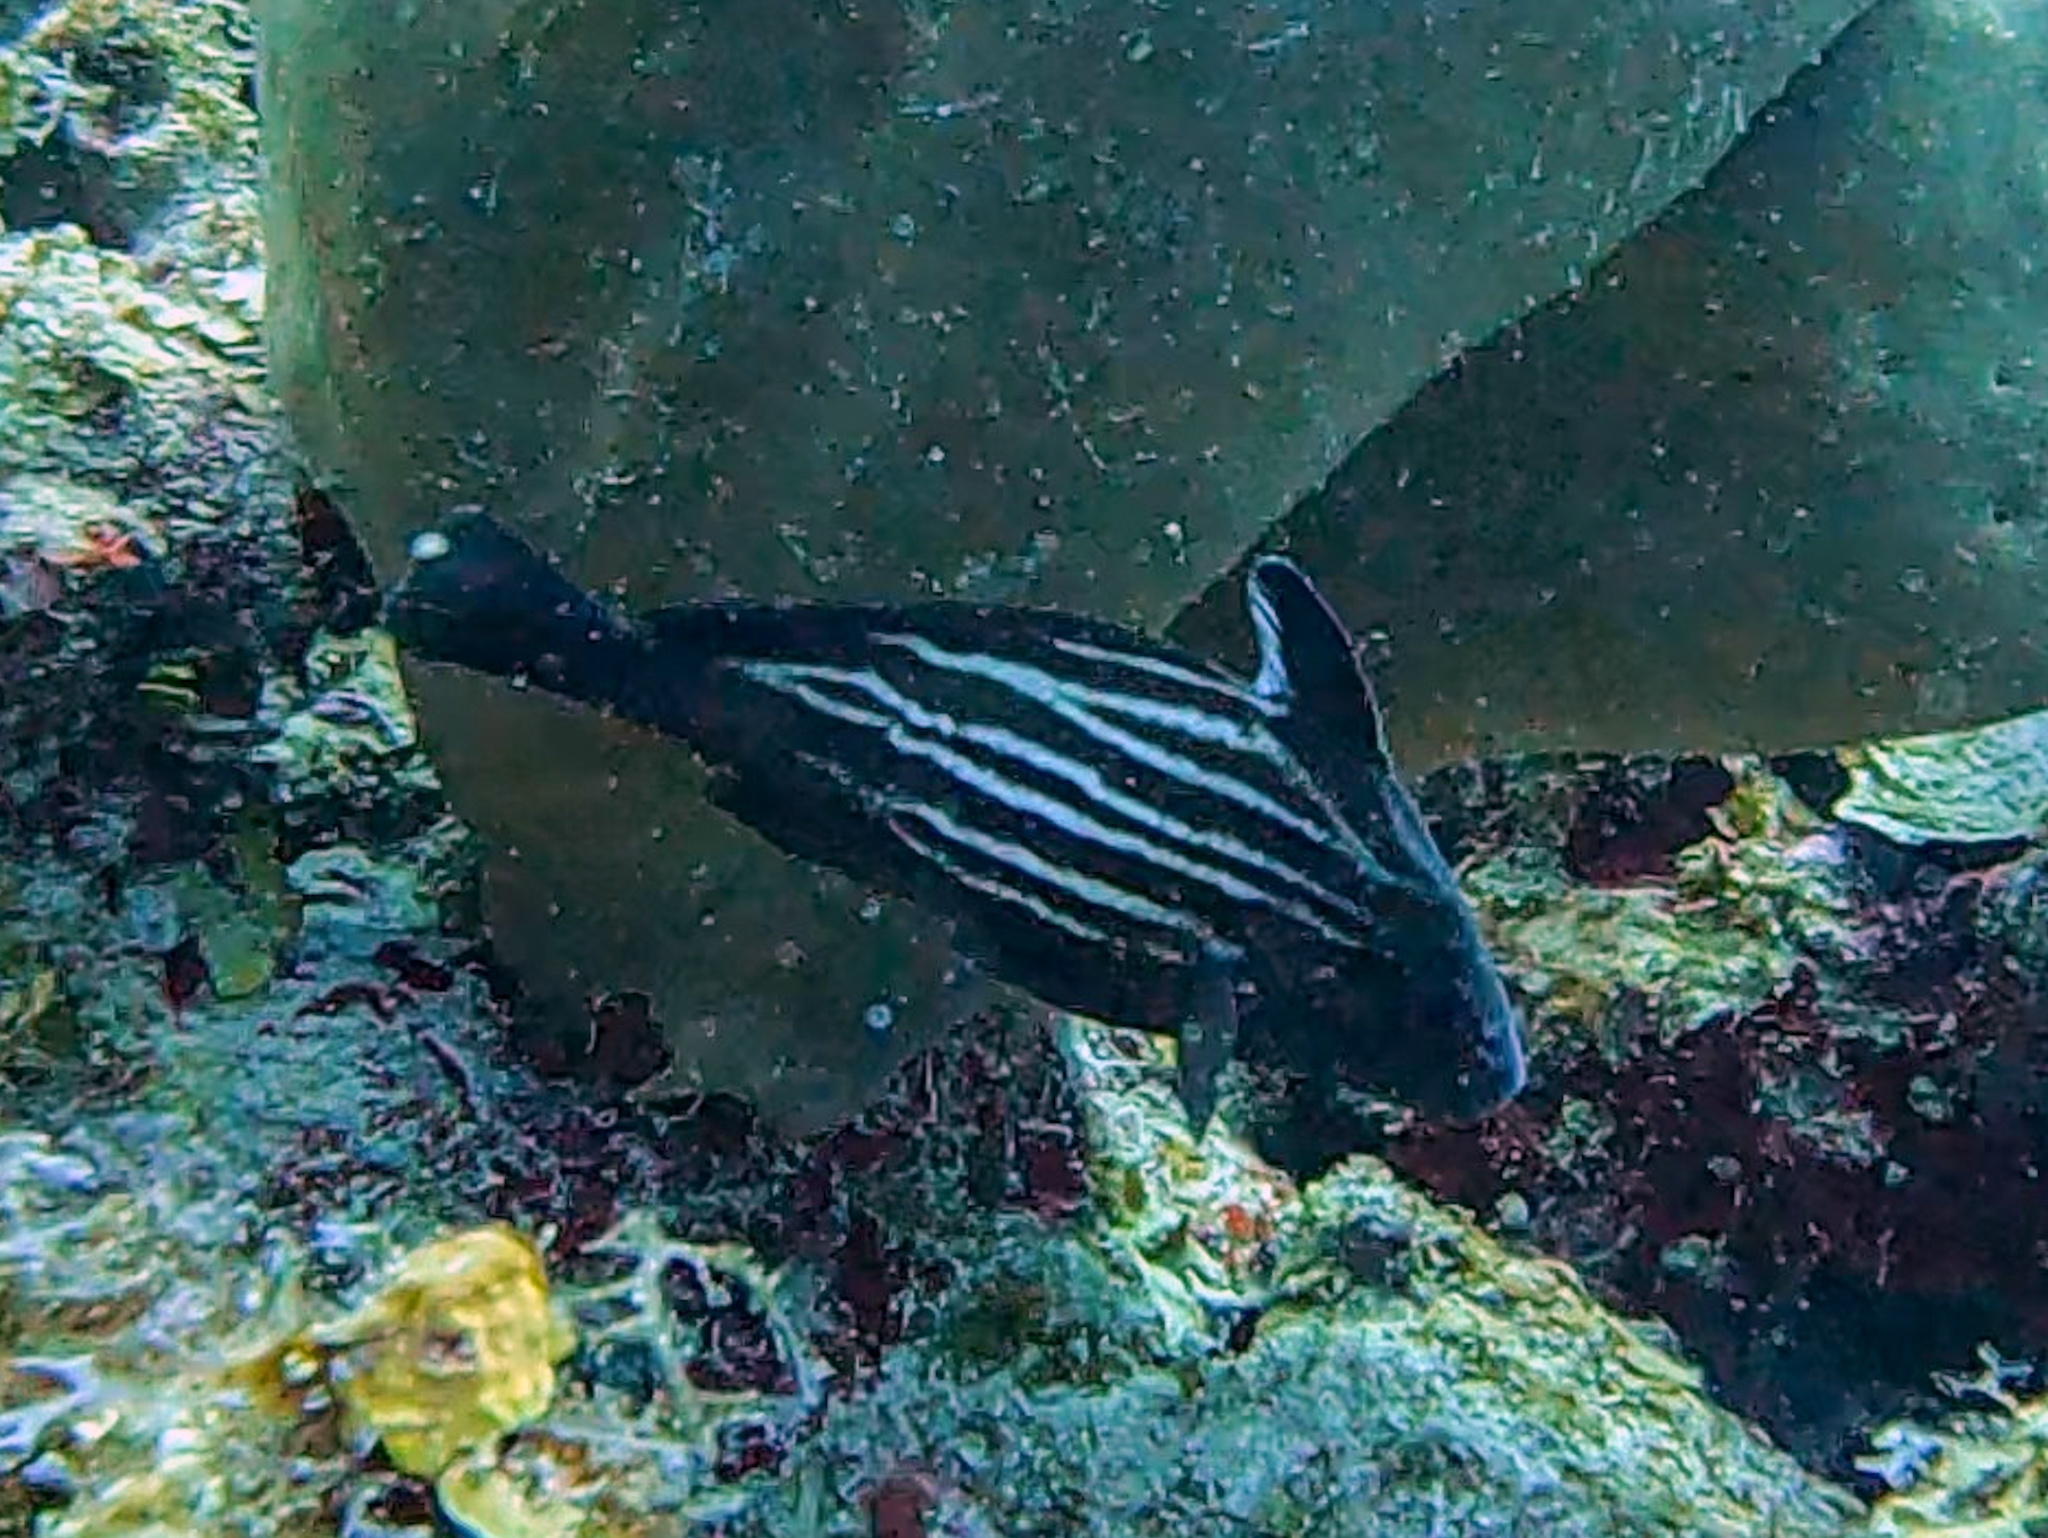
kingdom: Animalia
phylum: Chordata
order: Perciformes
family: Sciaenidae
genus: Pareques
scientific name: Pareques acuminatus
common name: High-hat
